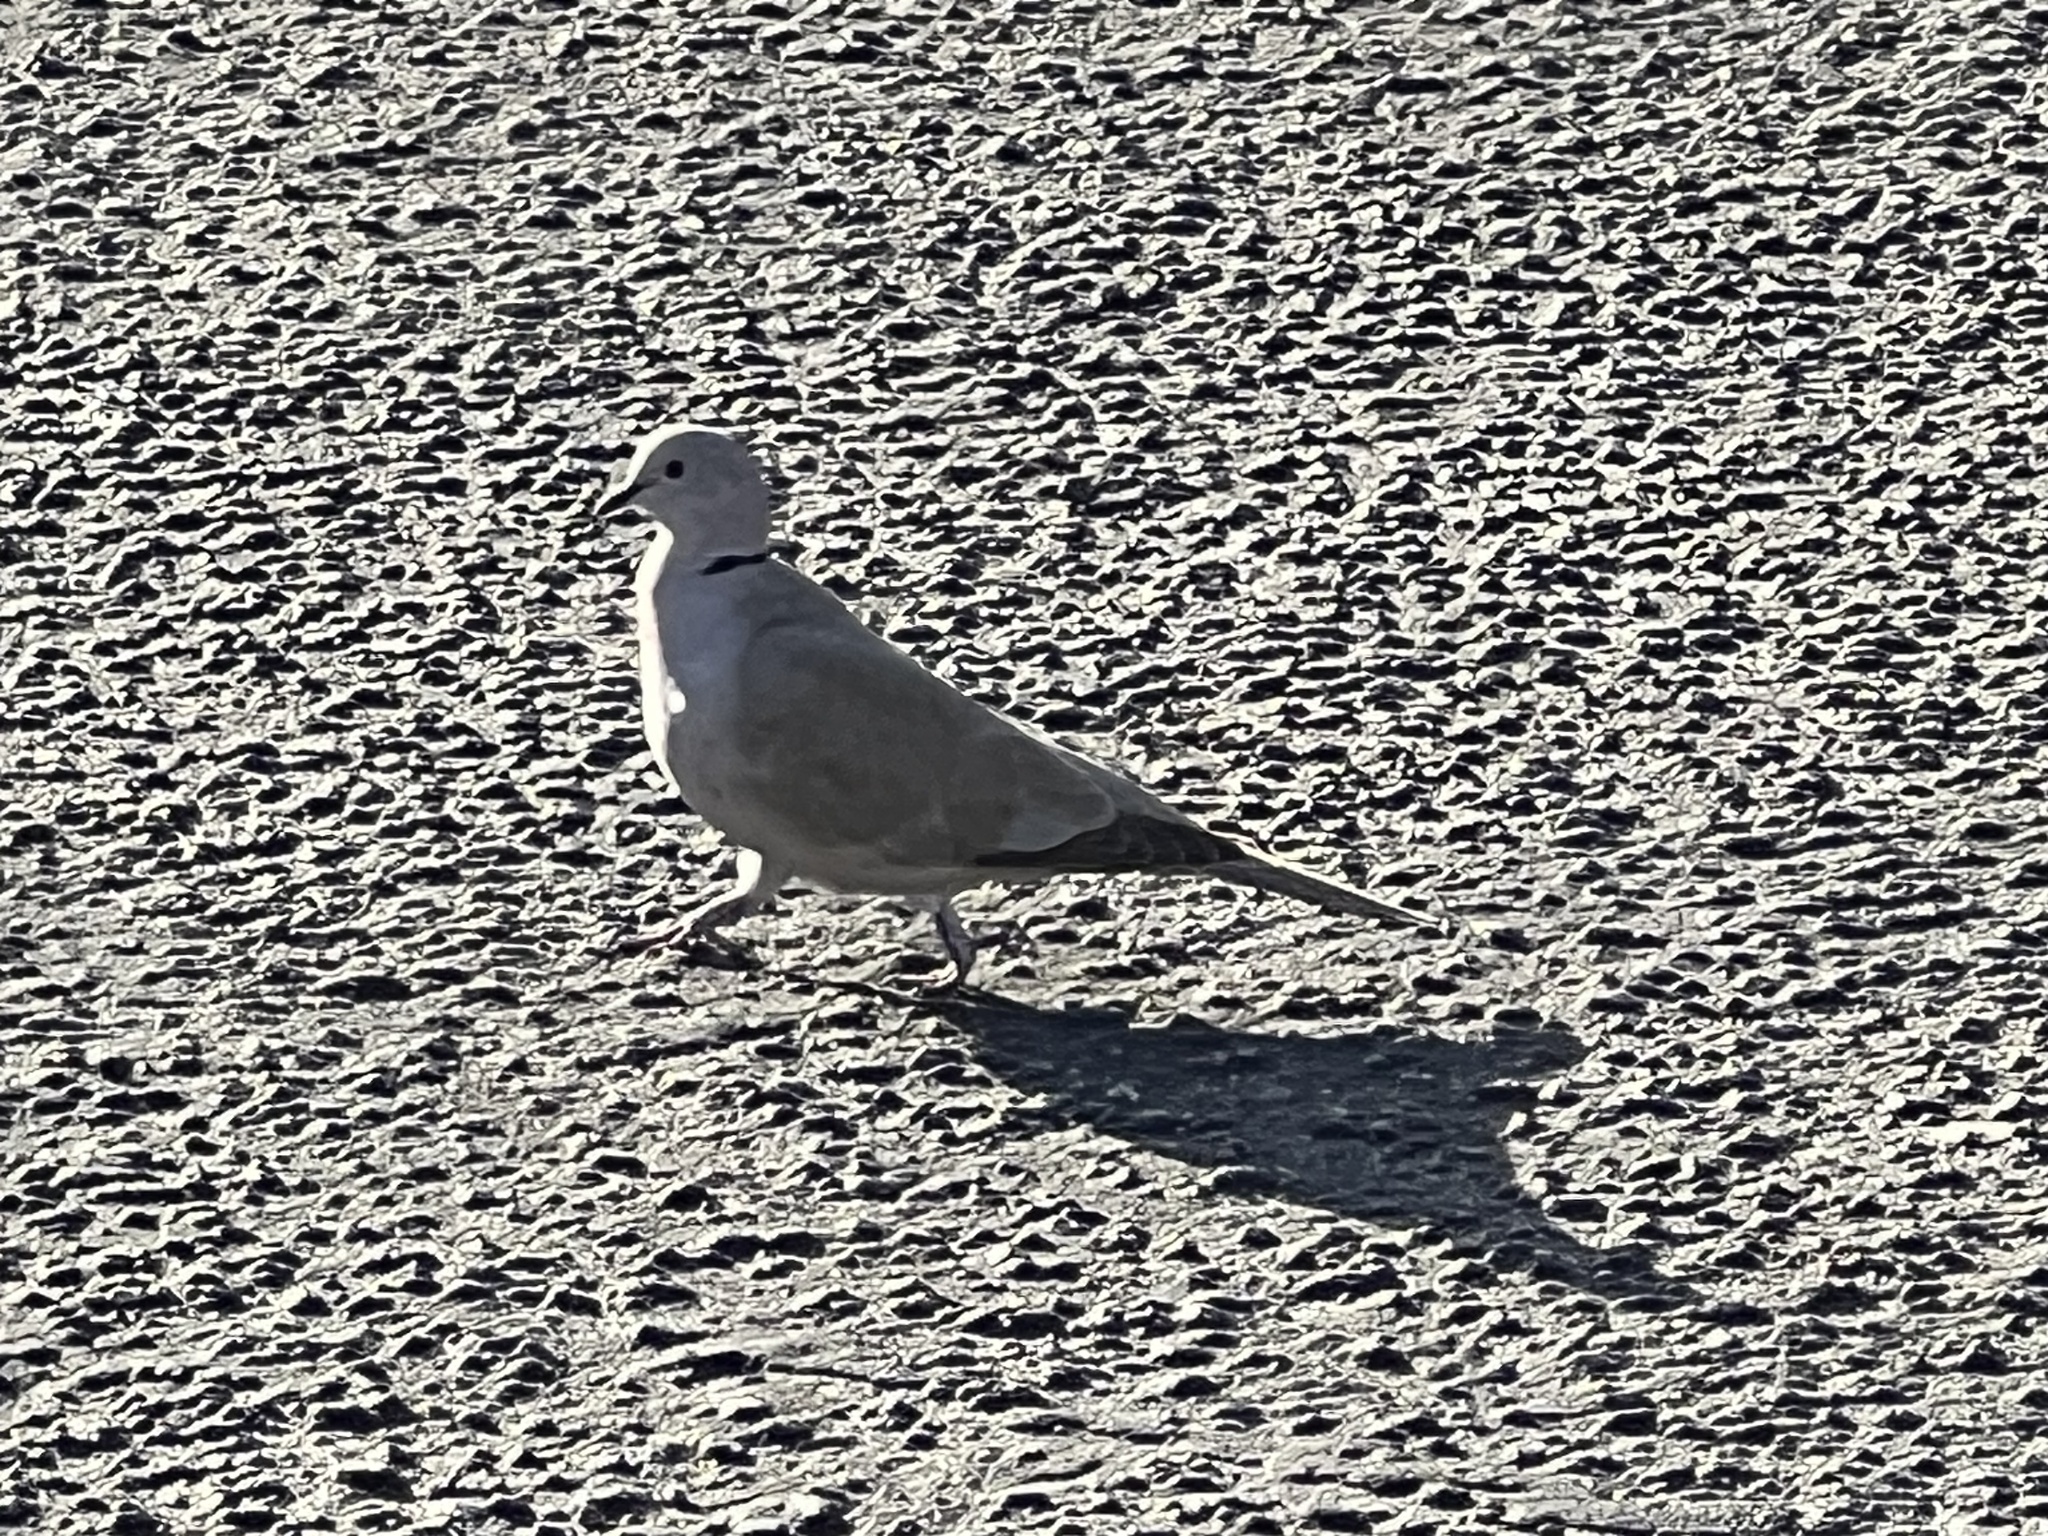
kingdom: Animalia
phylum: Chordata
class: Aves
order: Columbiformes
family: Columbidae
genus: Streptopelia
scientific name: Streptopelia decaocto
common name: Eurasian collared dove
